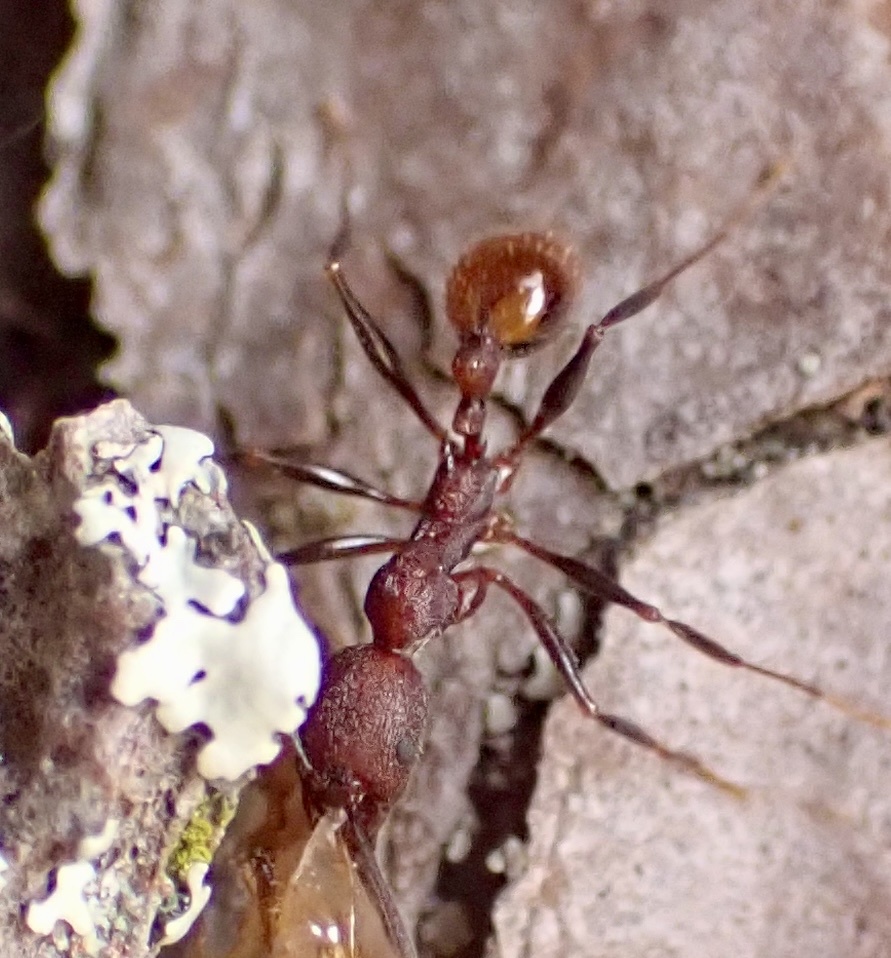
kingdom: Animalia
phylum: Arthropoda
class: Insecta
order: Hymenoptera
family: Formicidae
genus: Aphaenogaster
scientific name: Aphaenogaster lamellidens
